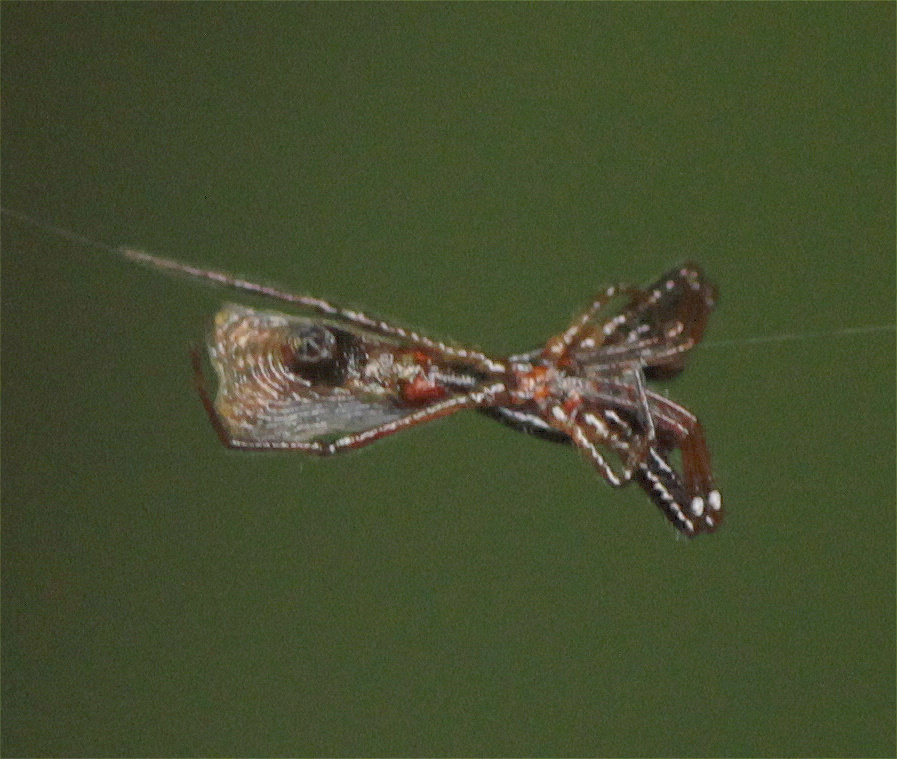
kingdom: Animalia
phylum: Arthropoda
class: Arachnida
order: Araneae
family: Araneidae
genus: Micrathena
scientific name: Micrathena sexspinosa
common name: Orb weavers
